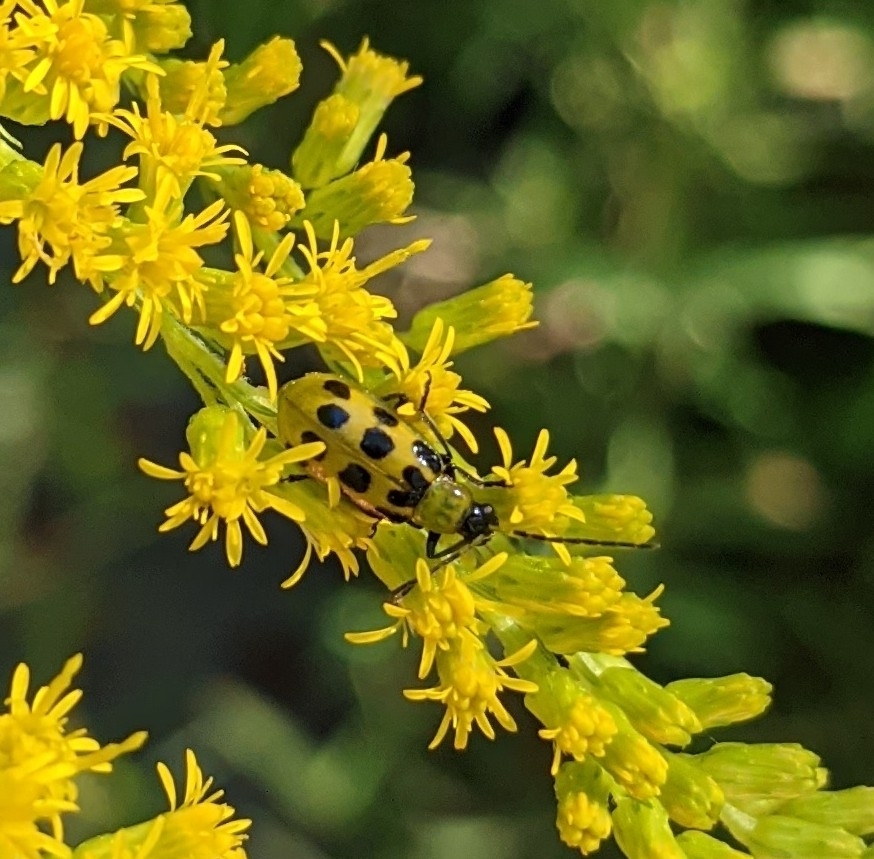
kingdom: Animalia
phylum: Arthropoda
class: Insecta
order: Coleoptera
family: Chrysomelidae
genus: Diabrotica
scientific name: Diabrotica undecimpunctata
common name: Spotted cucumber beetle
